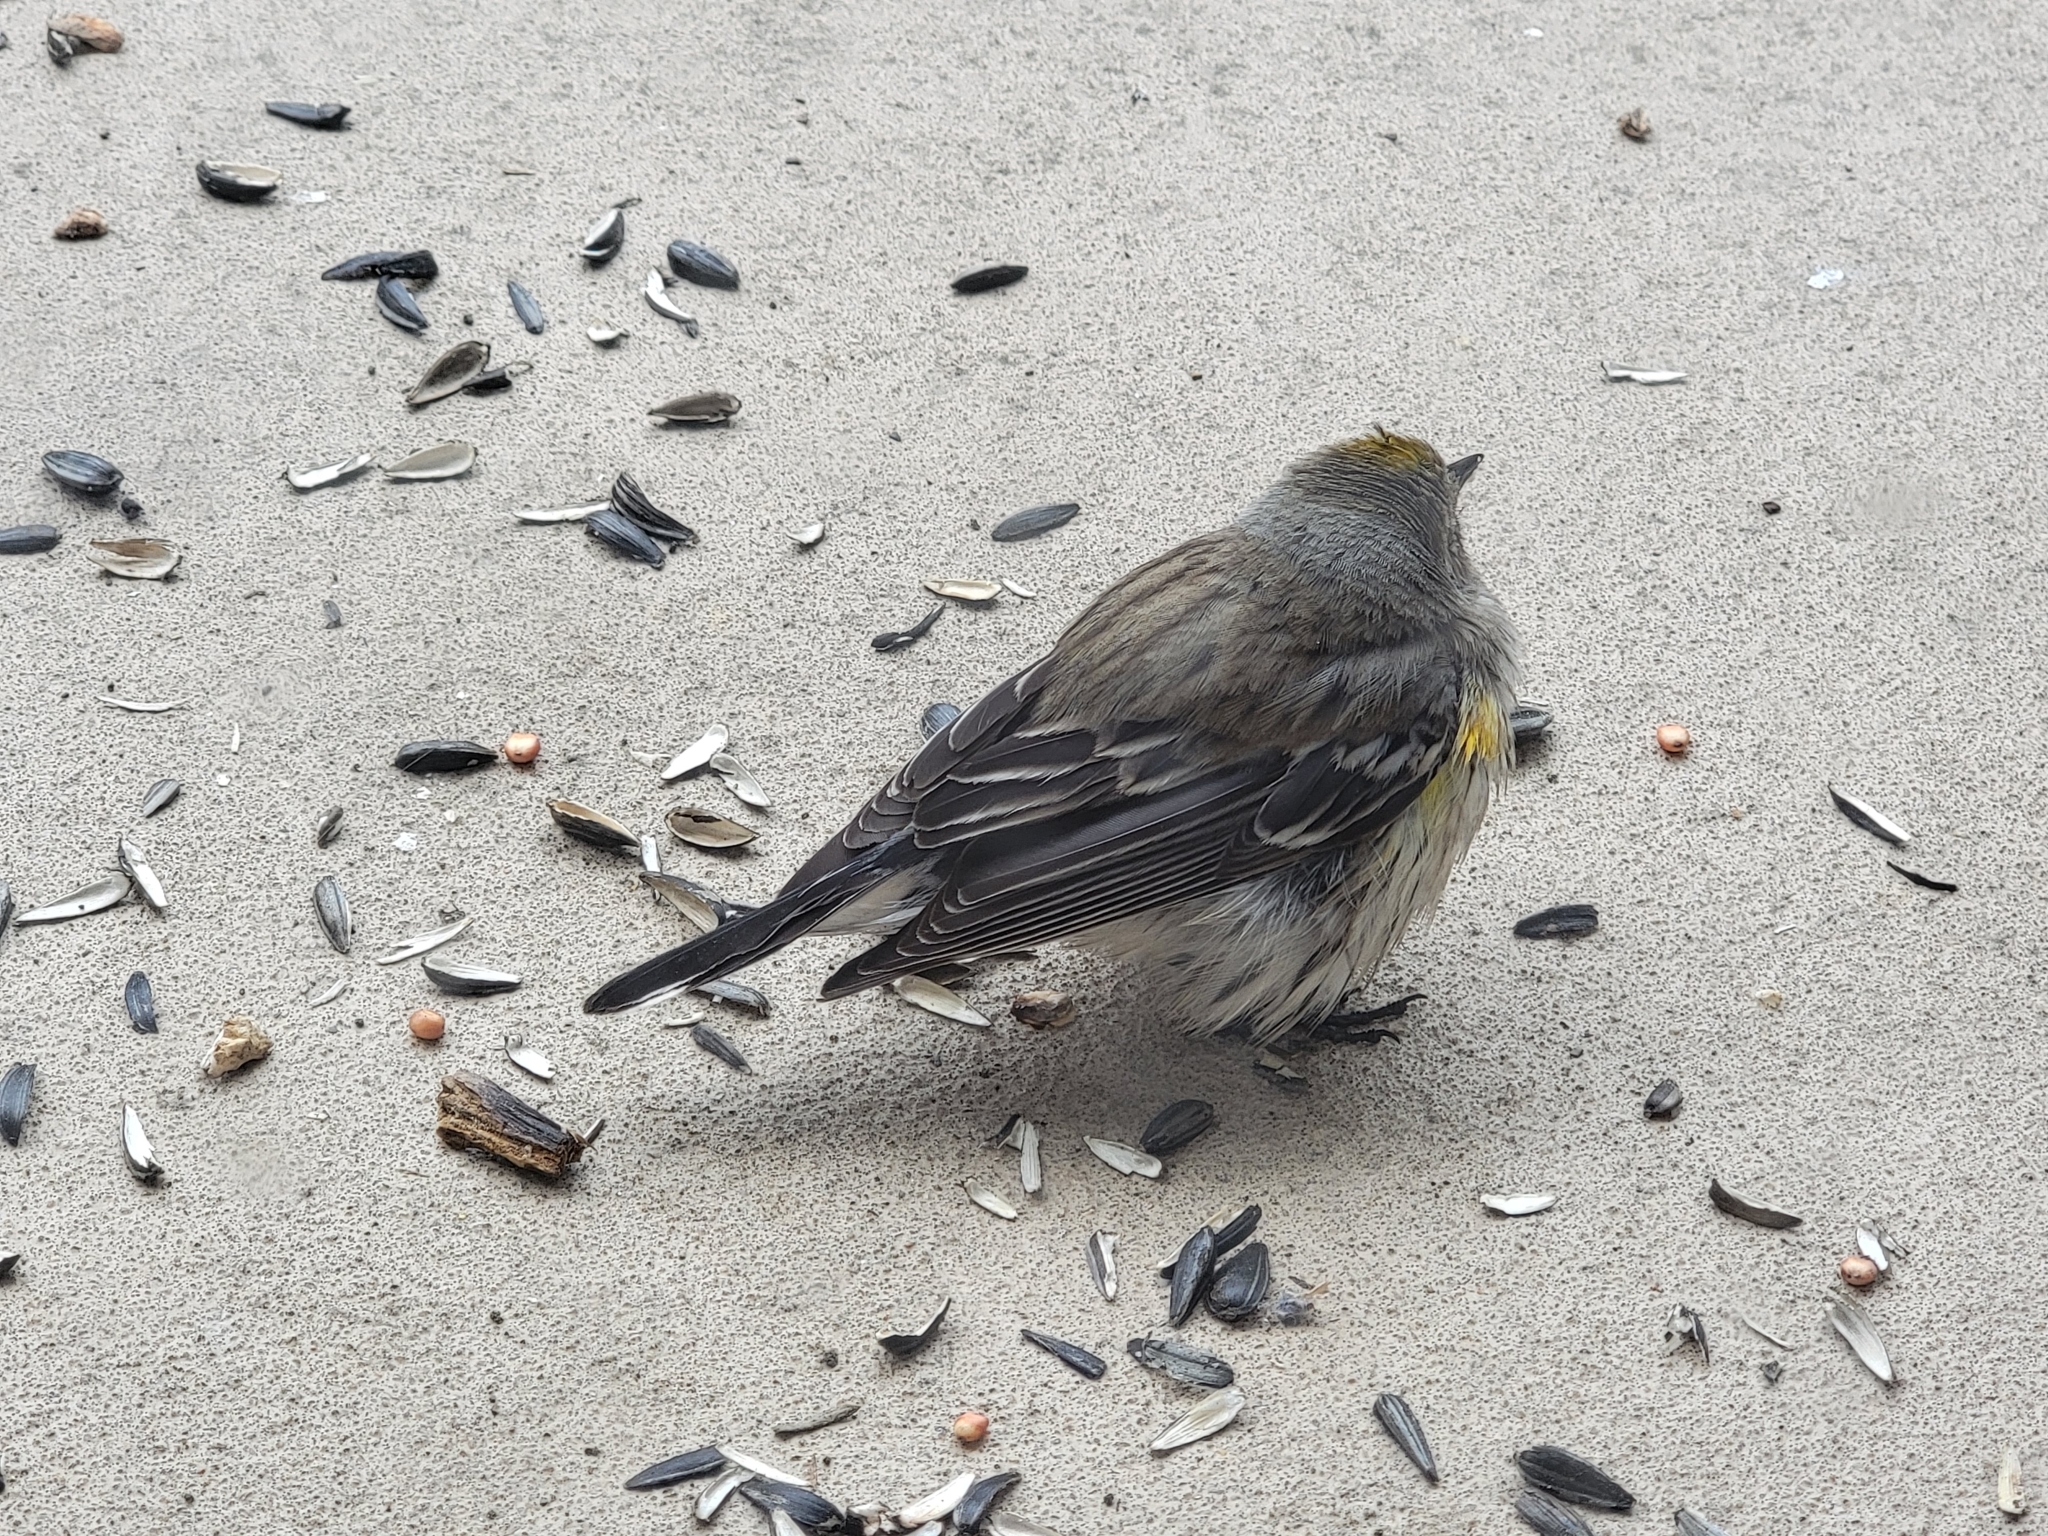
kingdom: Animalia
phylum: Chordata
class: Aves
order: Passeriformes
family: Parulidae
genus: Setophaga
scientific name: Setophaga coronata
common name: Myrtle warbler
